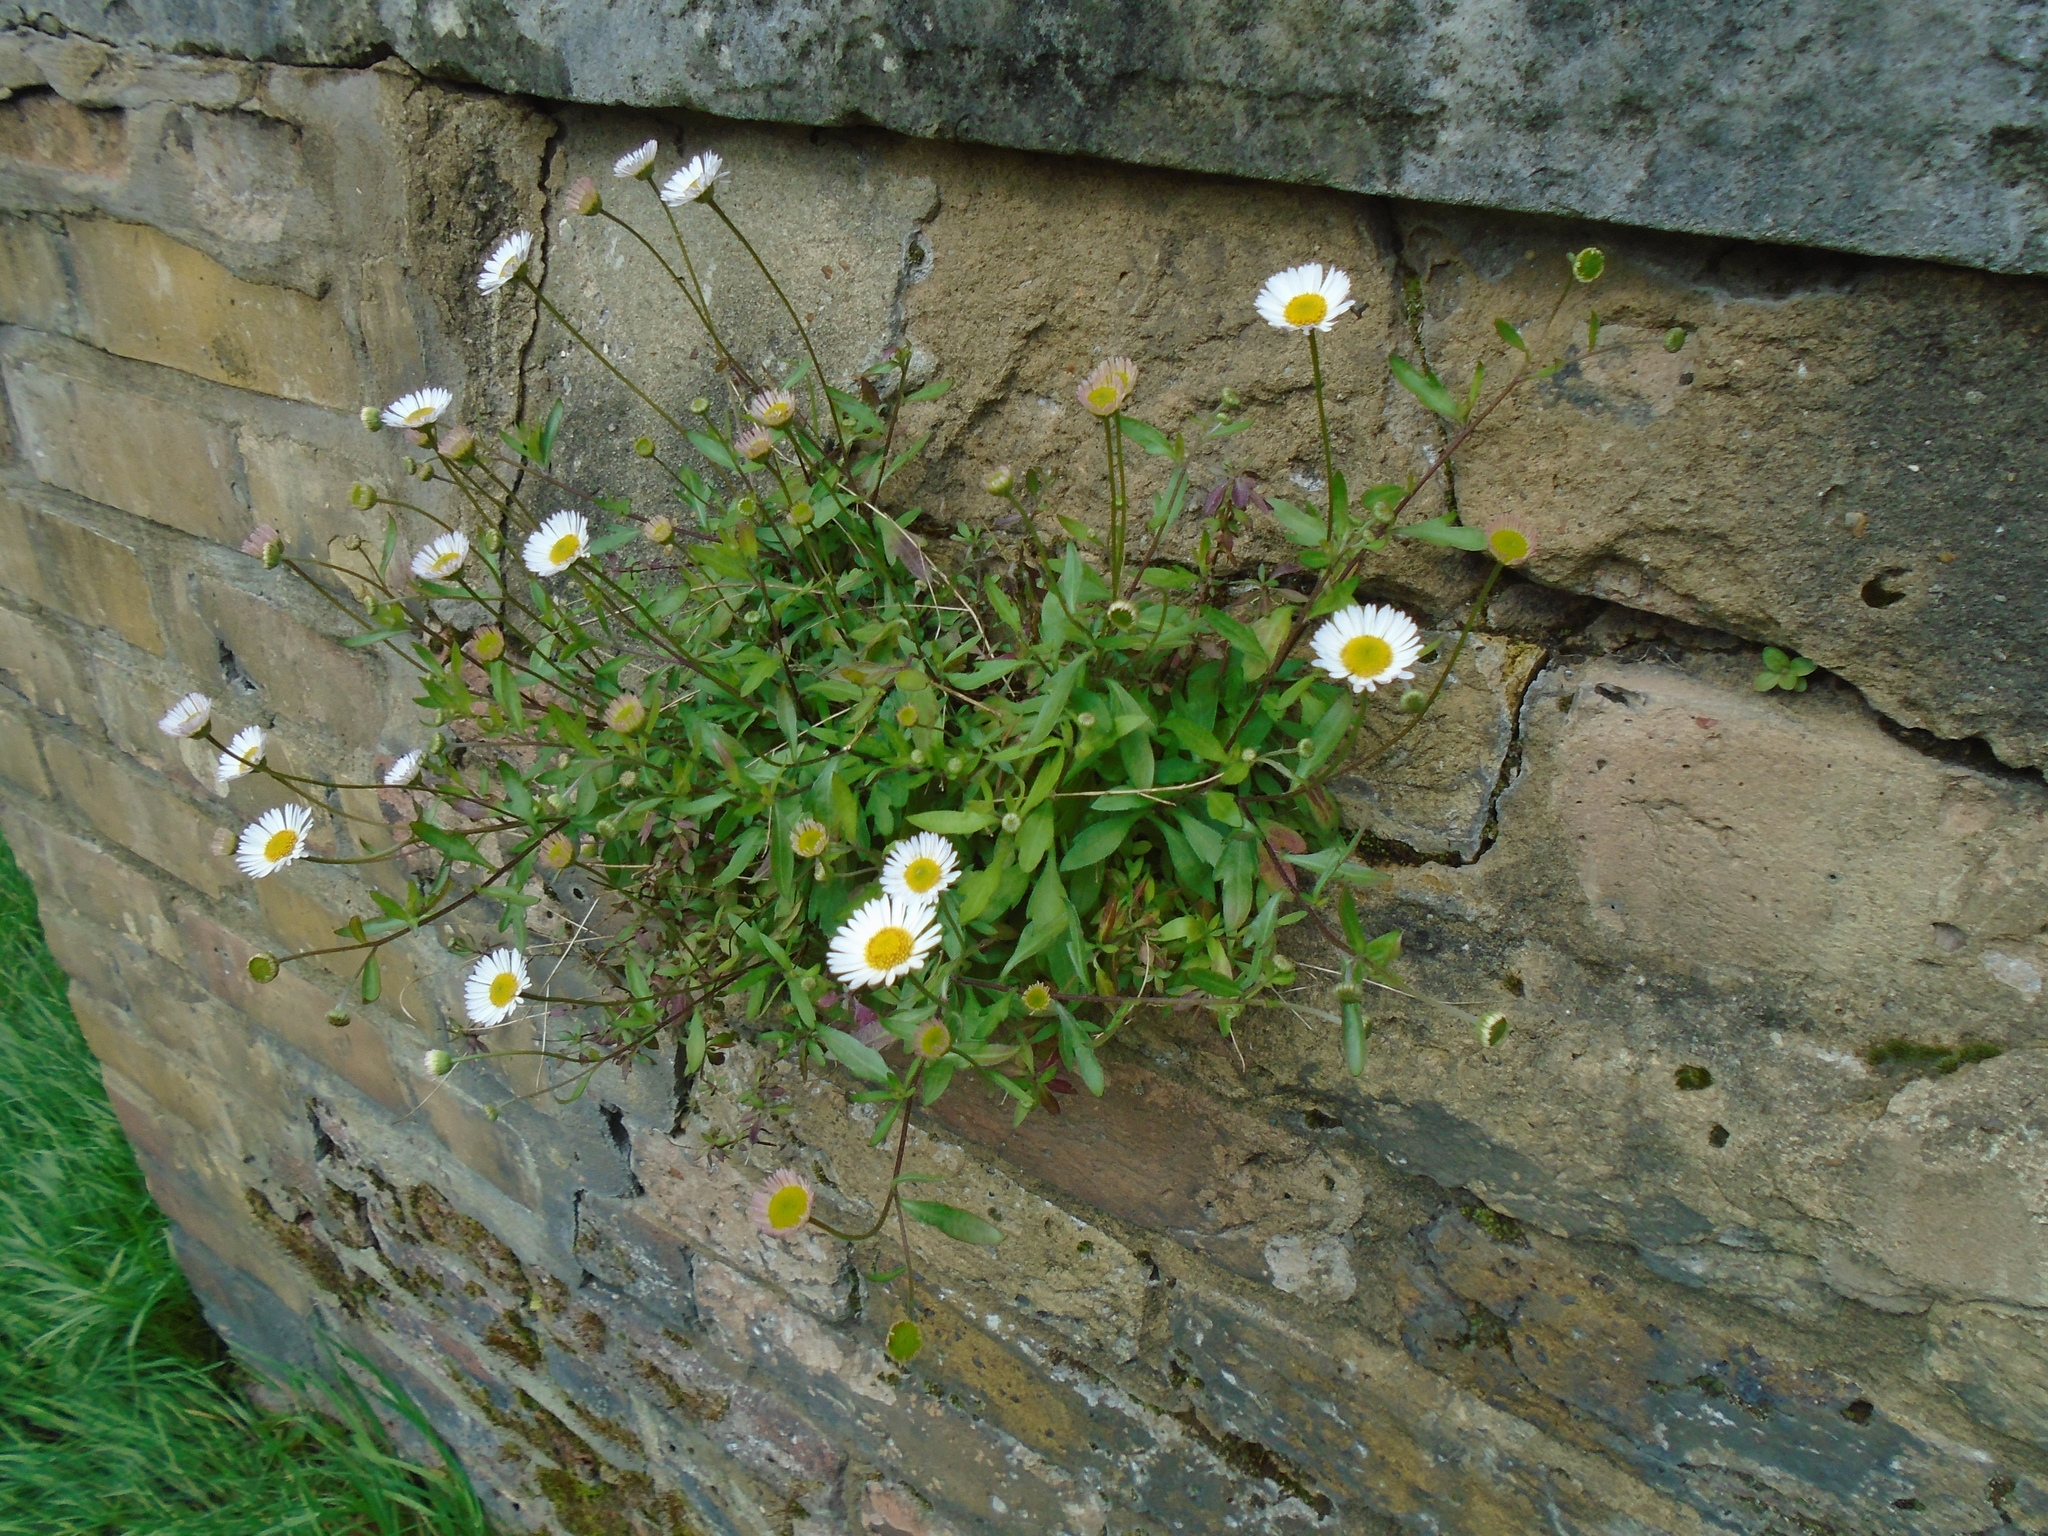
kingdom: Plantae
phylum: Tracheophyta
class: Magnoliopsida
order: Asterales
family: Asteraceae
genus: Erigeron
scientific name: Erigeron karvinskianus
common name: Mexican fleabane
